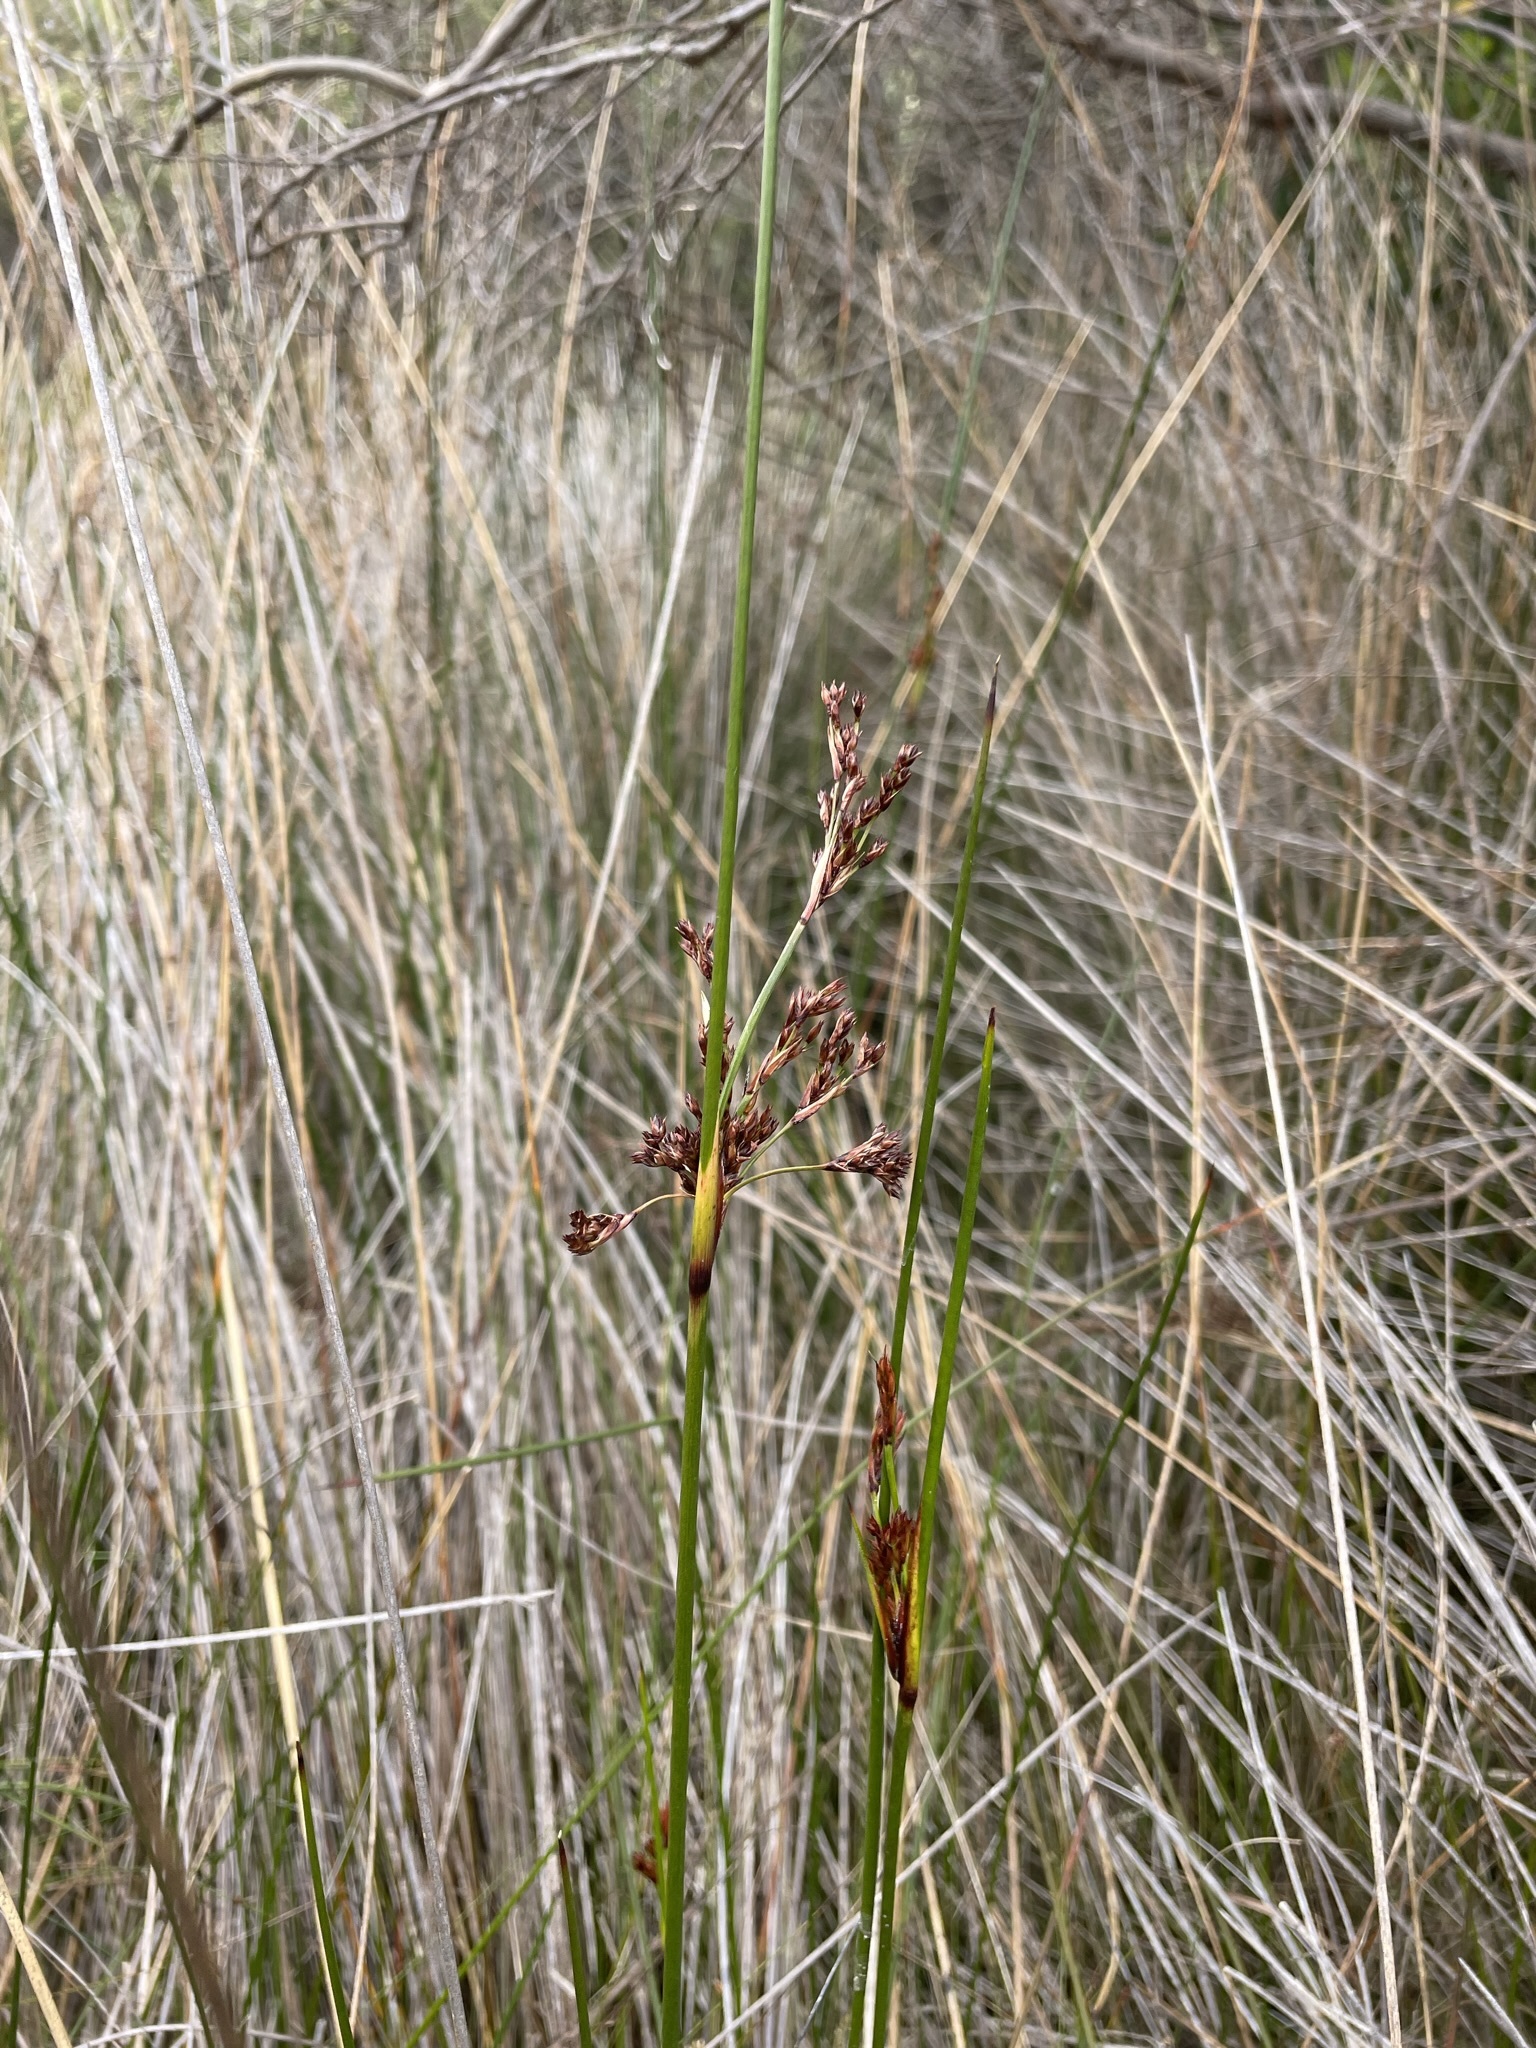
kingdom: Plantae
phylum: Tracheophyta
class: Liliopsida
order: Poales
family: Juncaceae
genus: Juncus
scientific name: Juncus kraussii
